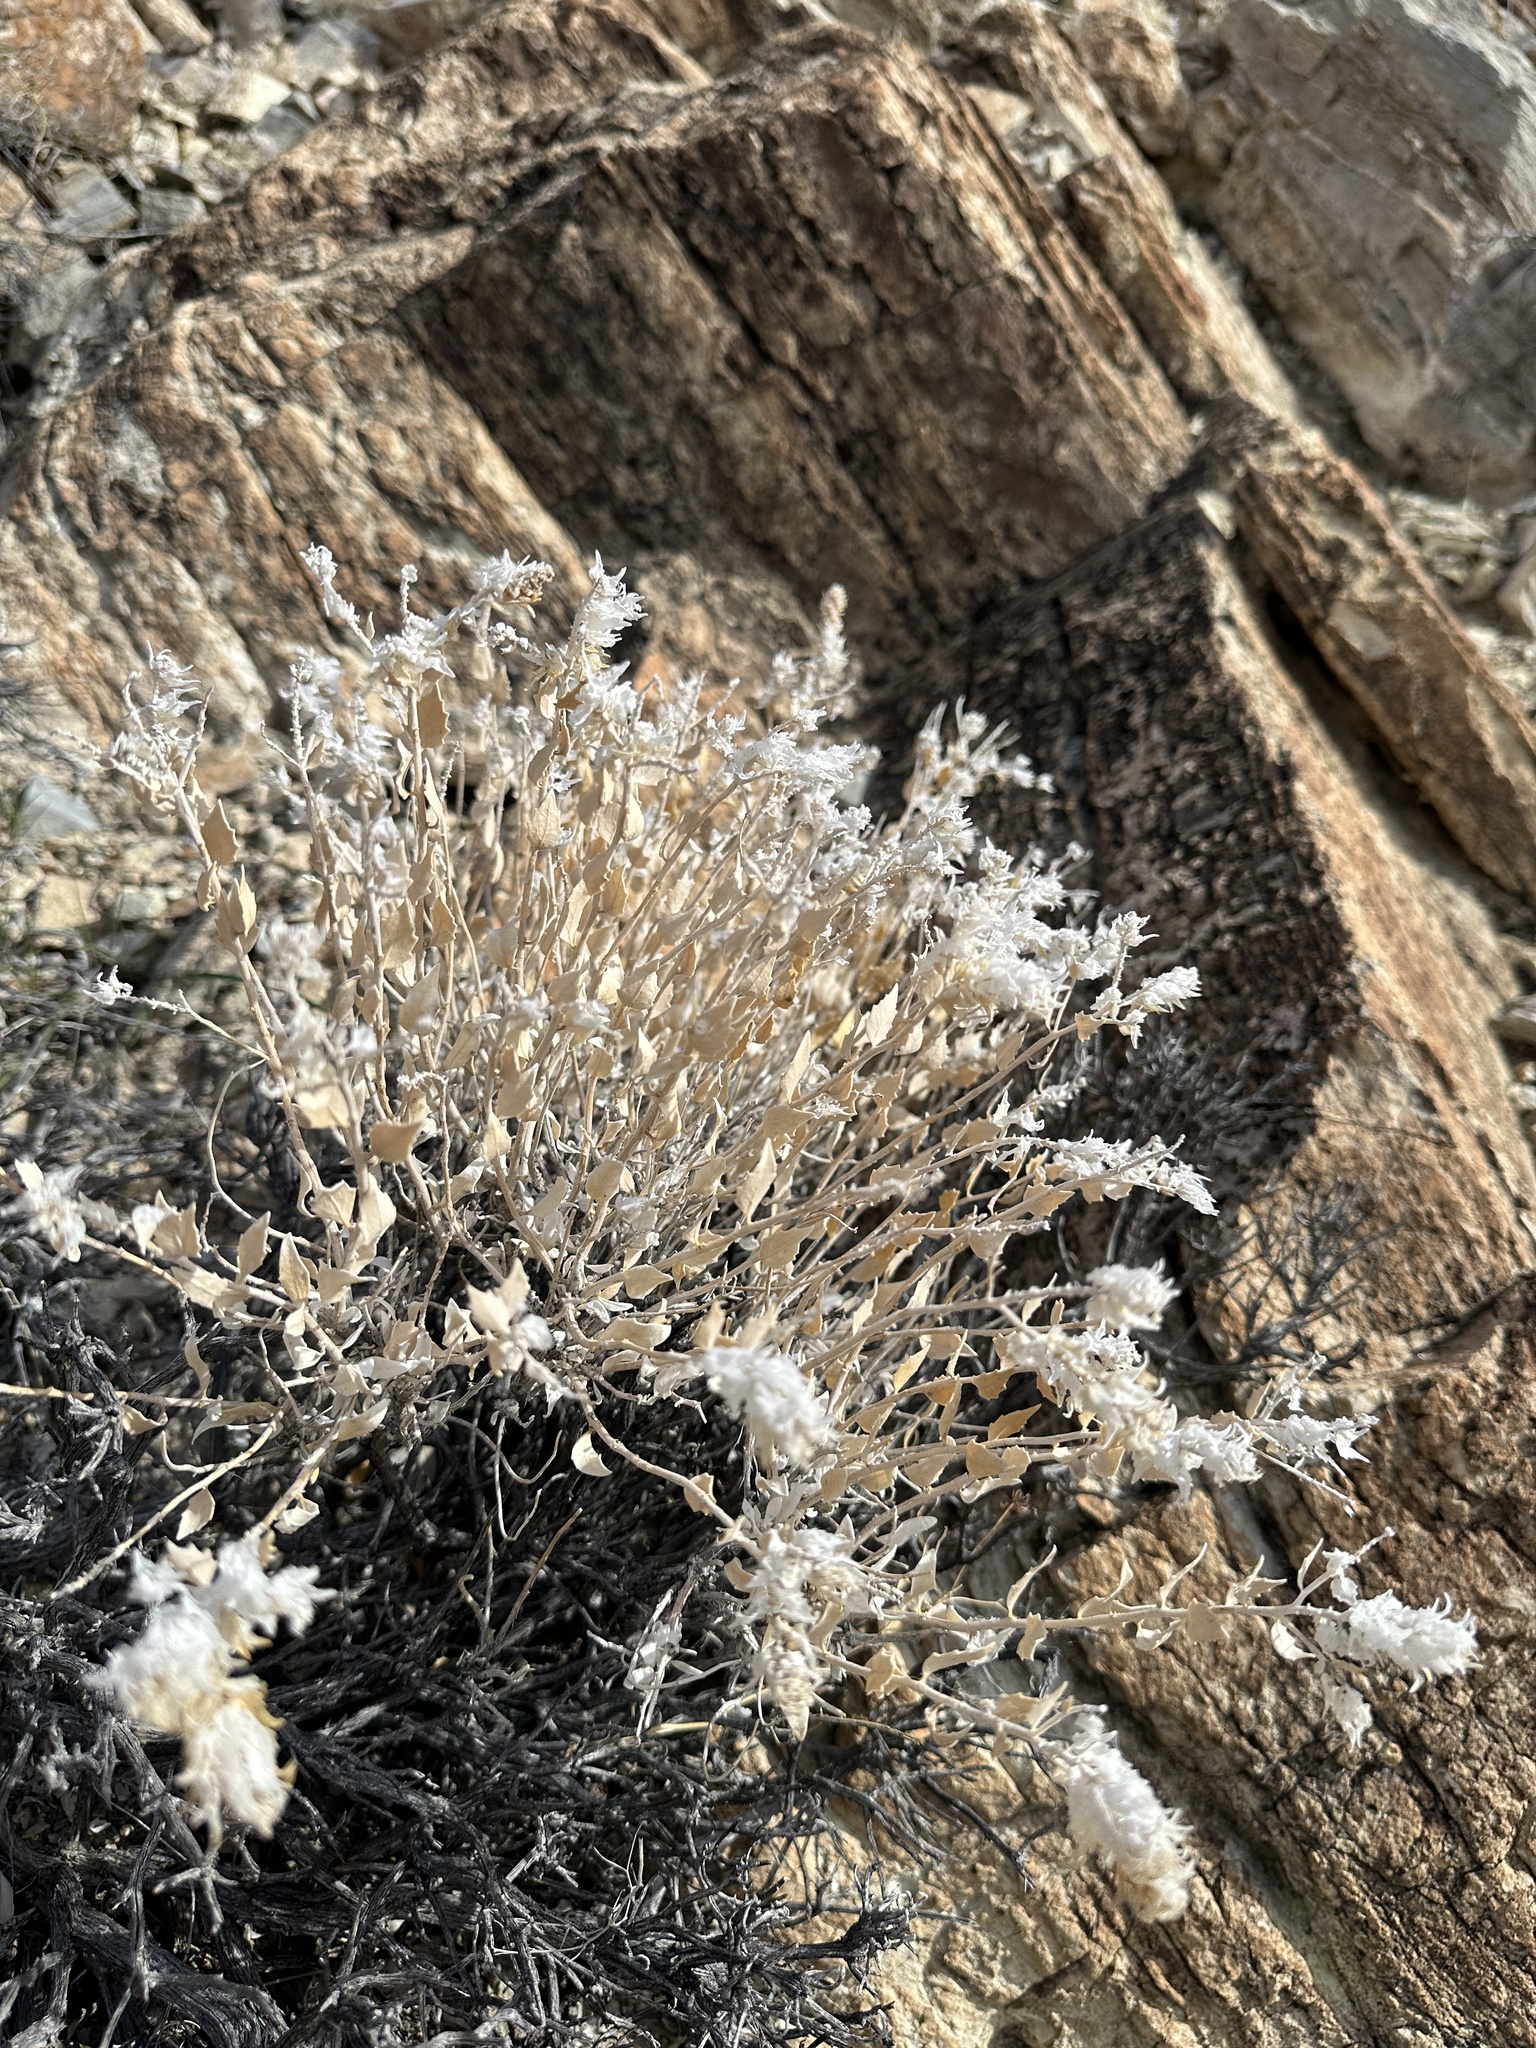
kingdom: Plantae
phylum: Tracheophyta
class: Magnoliopsida
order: Cornales
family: Loasaceae
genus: Petalonyx
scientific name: Petalonyx nitidus
